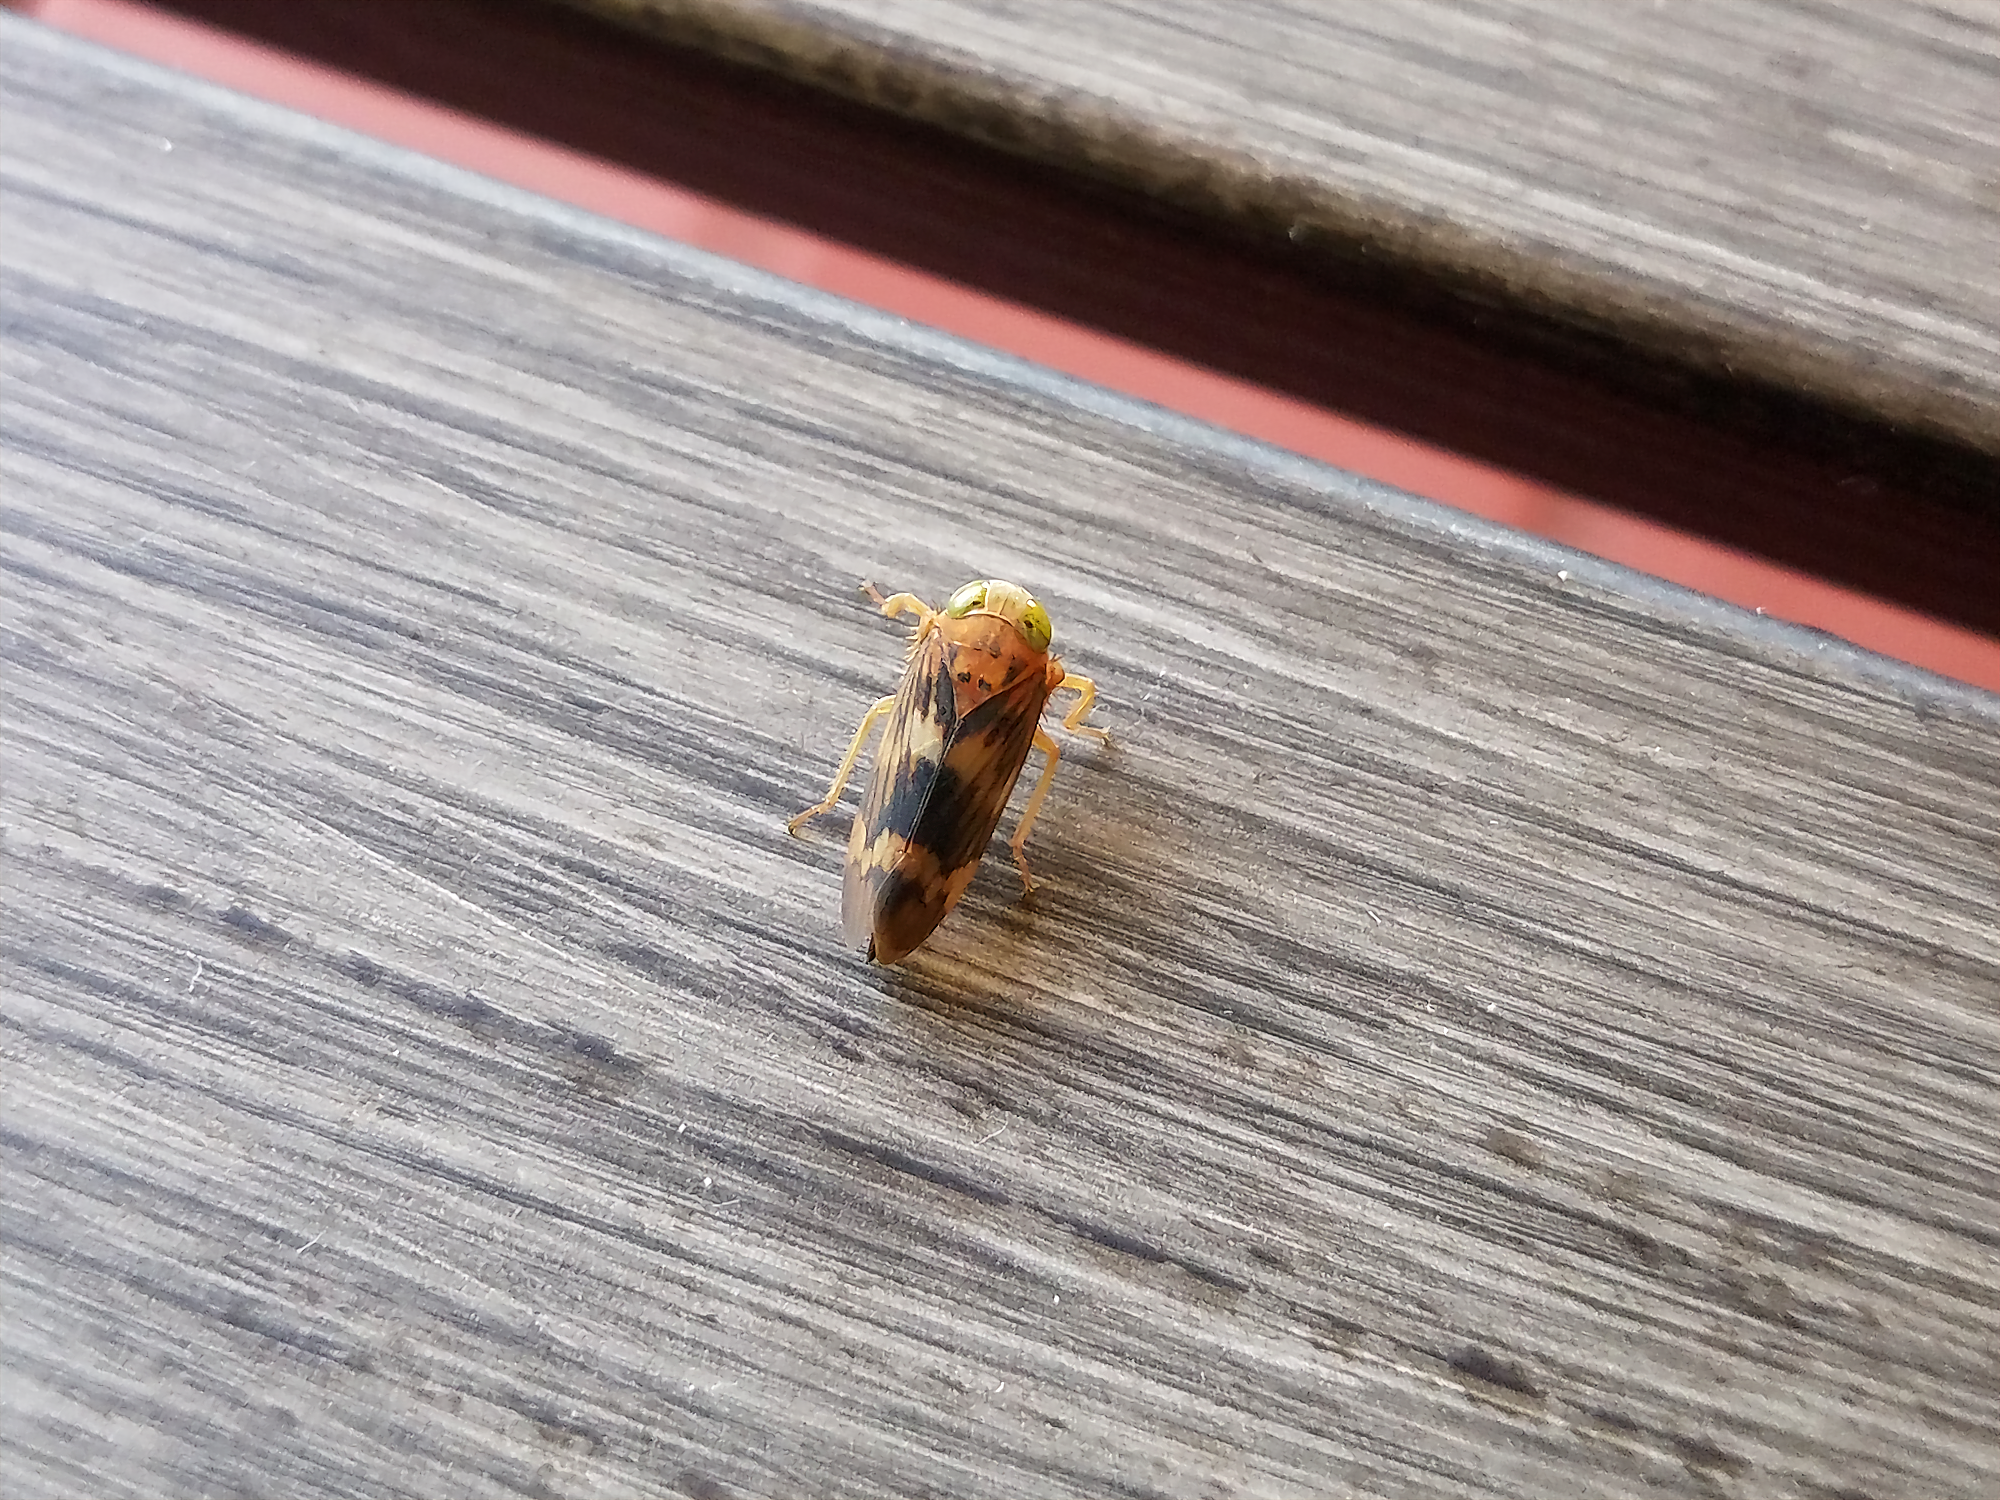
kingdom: Animalia
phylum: Arthropoda
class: Insecta
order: Hemiptera
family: Cicadellidae
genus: Jikradia
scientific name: Jikradia olitoria
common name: Coppery leafhopper
